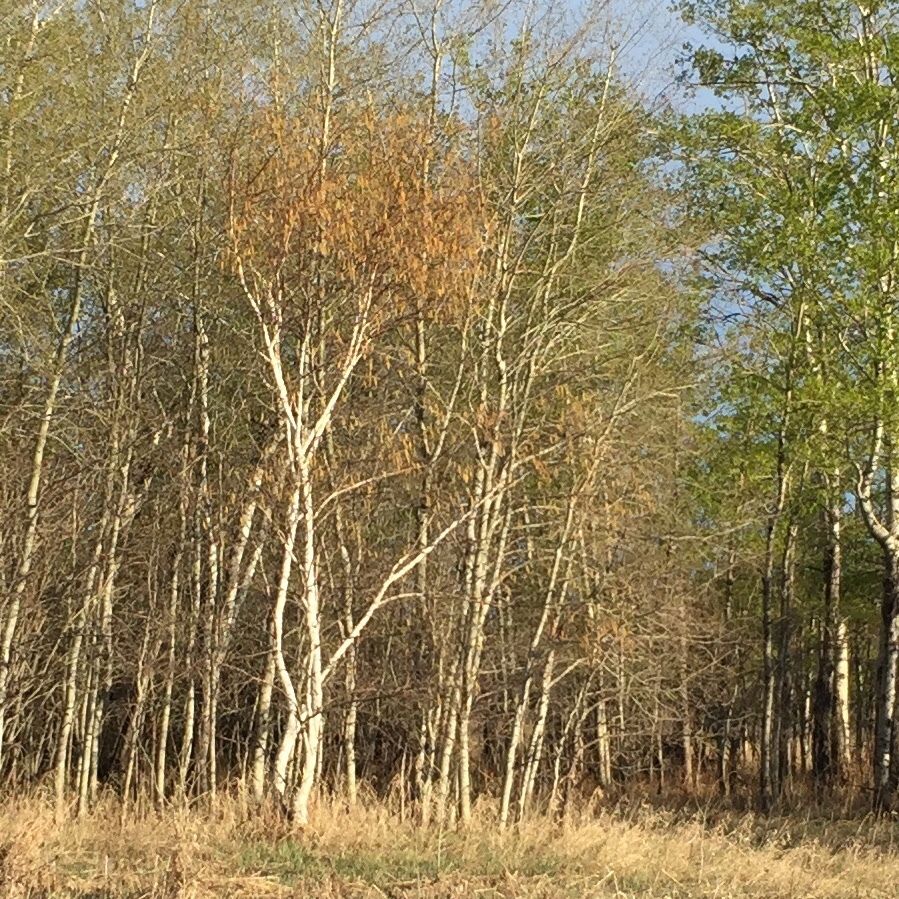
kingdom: Plantae
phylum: Tracheophyta
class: Magnoliopsida
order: Fagales
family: Betulaceae
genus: Betula
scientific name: Betula papyrifera
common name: Paper birch
